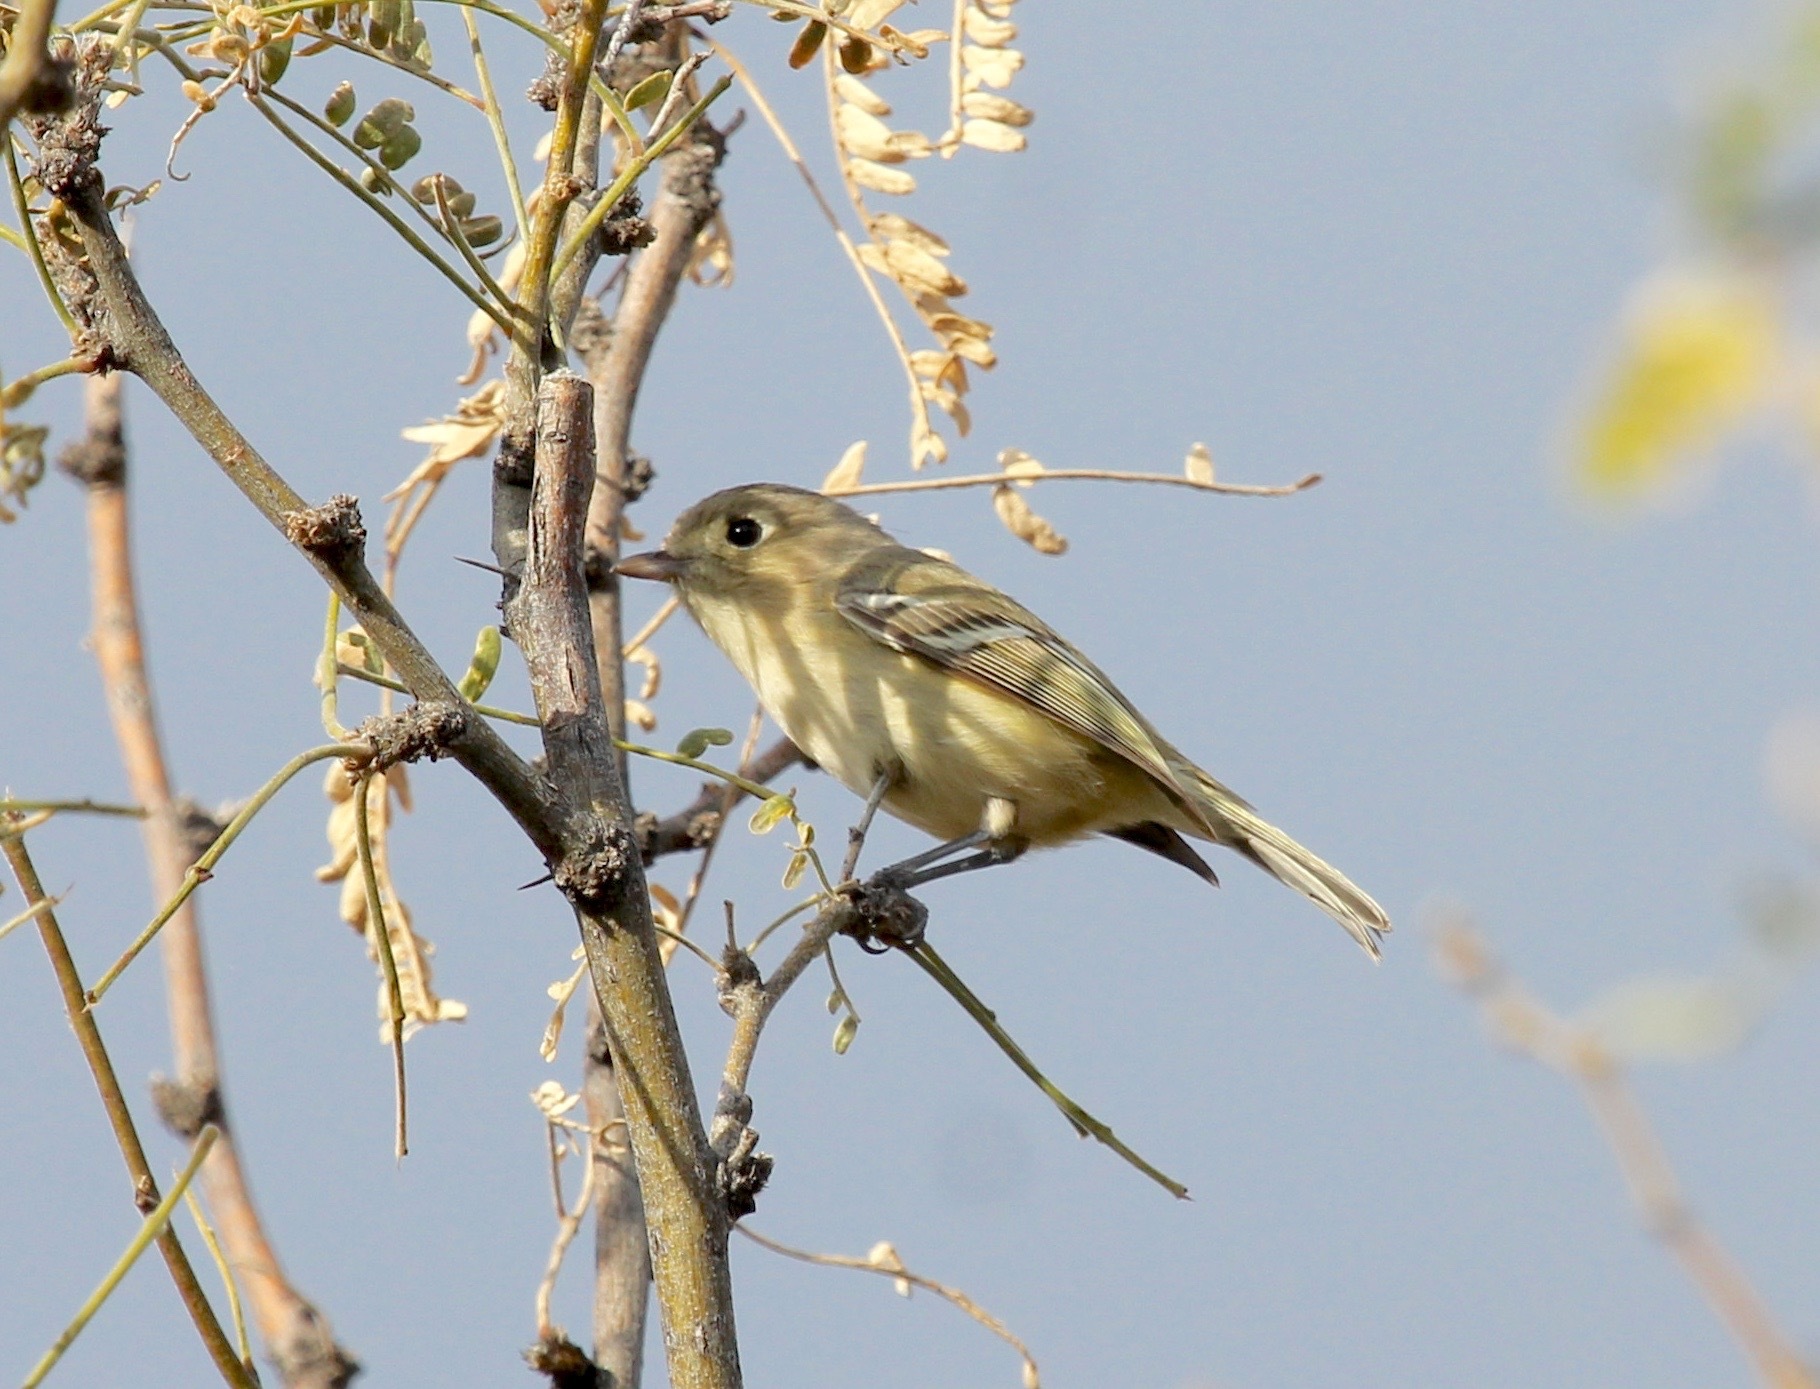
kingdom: Animalia
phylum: Chordata
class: Aves
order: Passeriformes
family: Vireonidae
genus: Vireo
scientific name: Vireo huttoni
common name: Hutton's vireo
